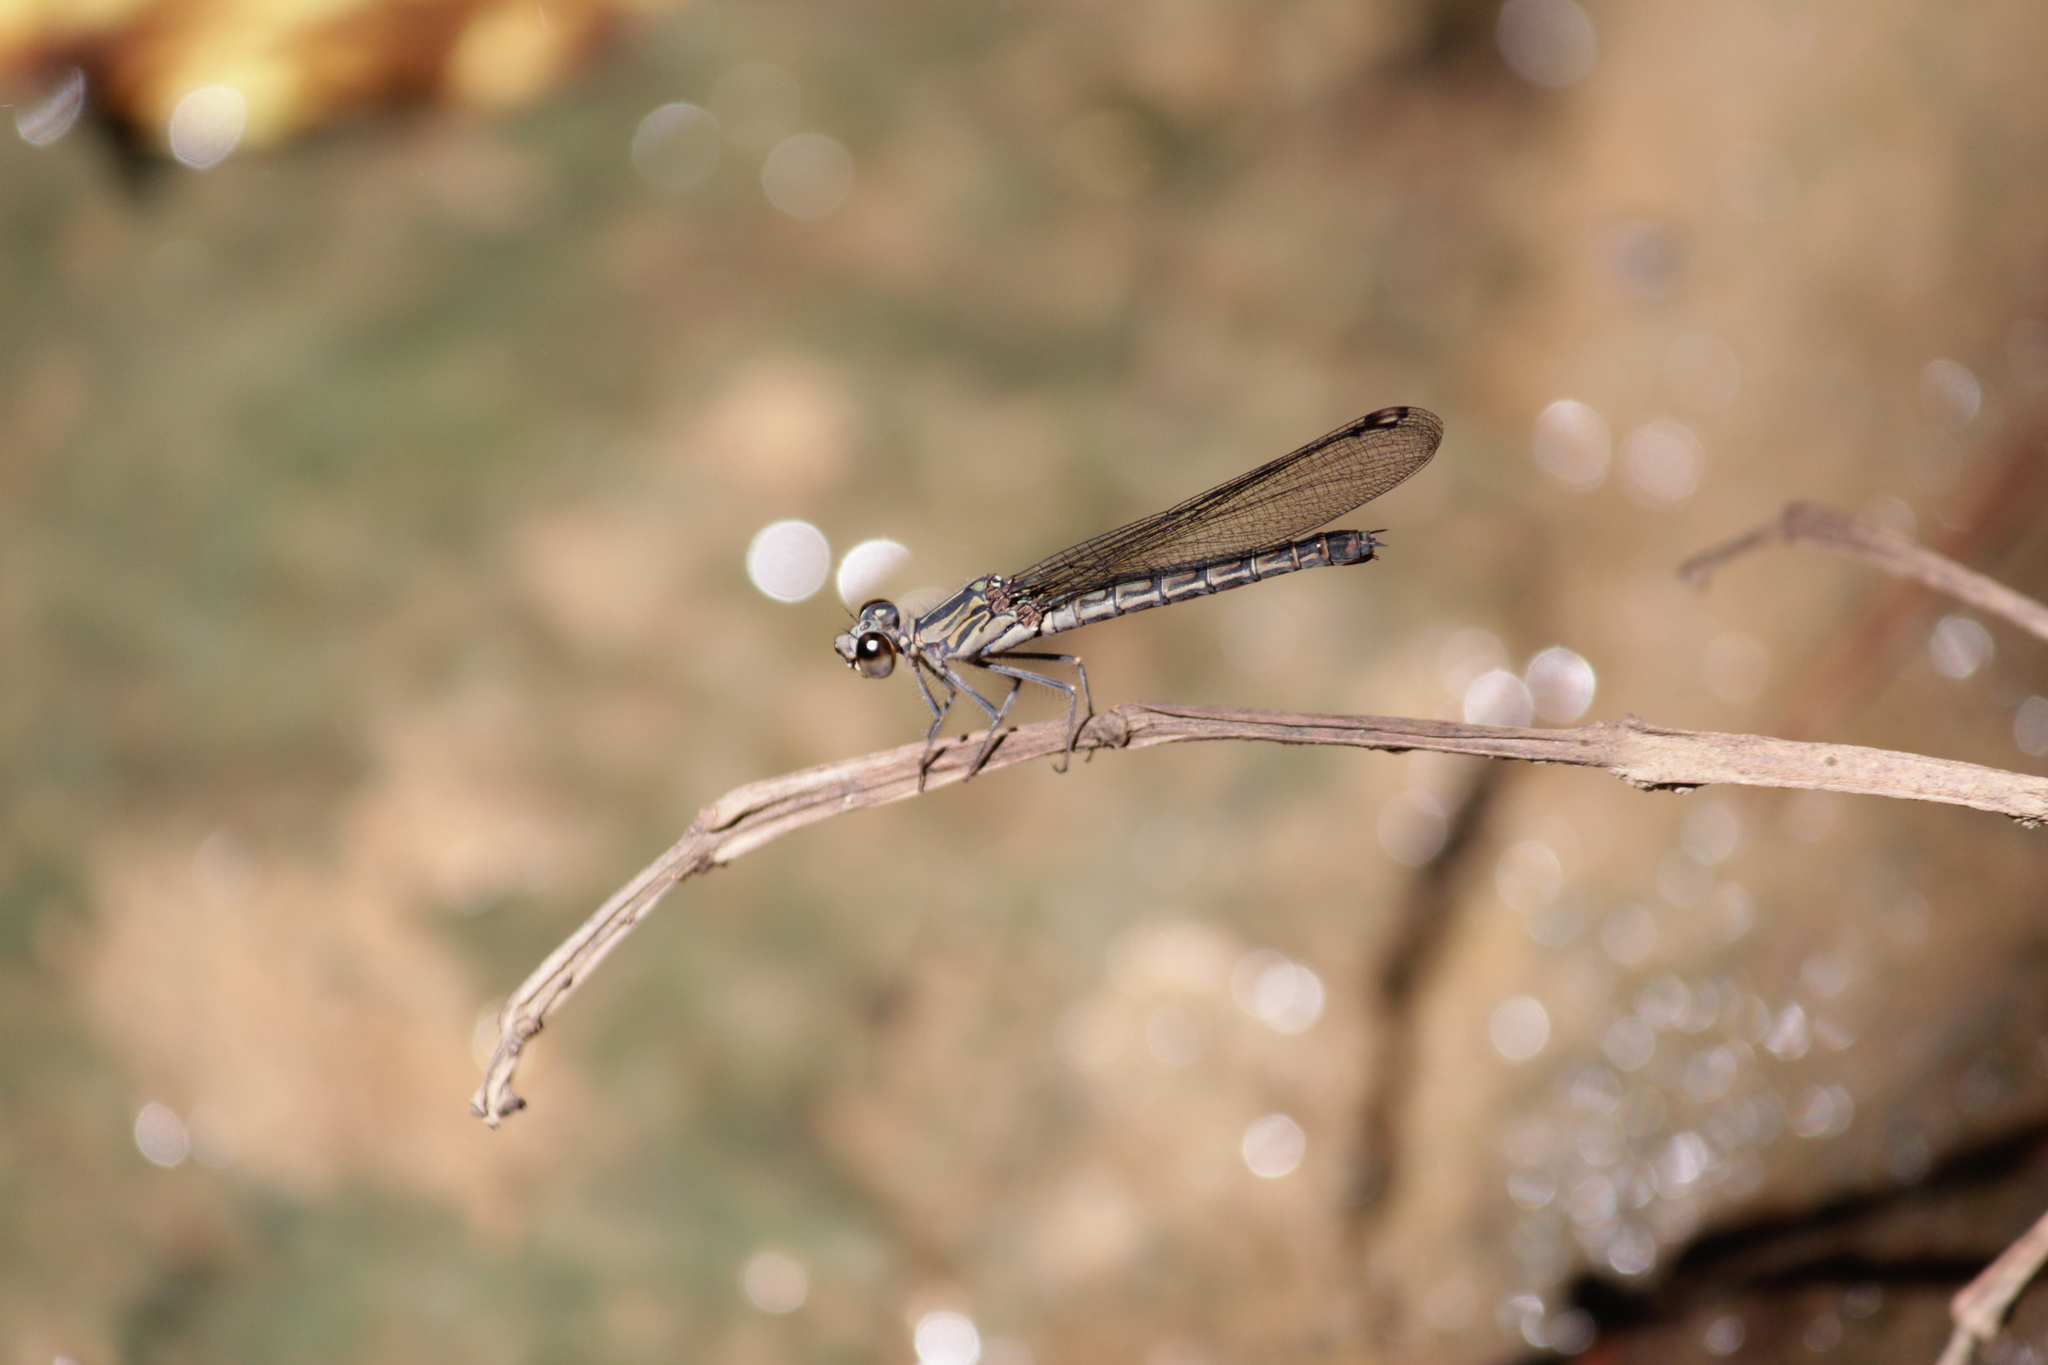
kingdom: Animalia
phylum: Arthropoda
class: Insecta
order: Odonata
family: Chlorocyphidae
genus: Platycypha
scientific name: Platycypha caligata
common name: Dancing jewel
